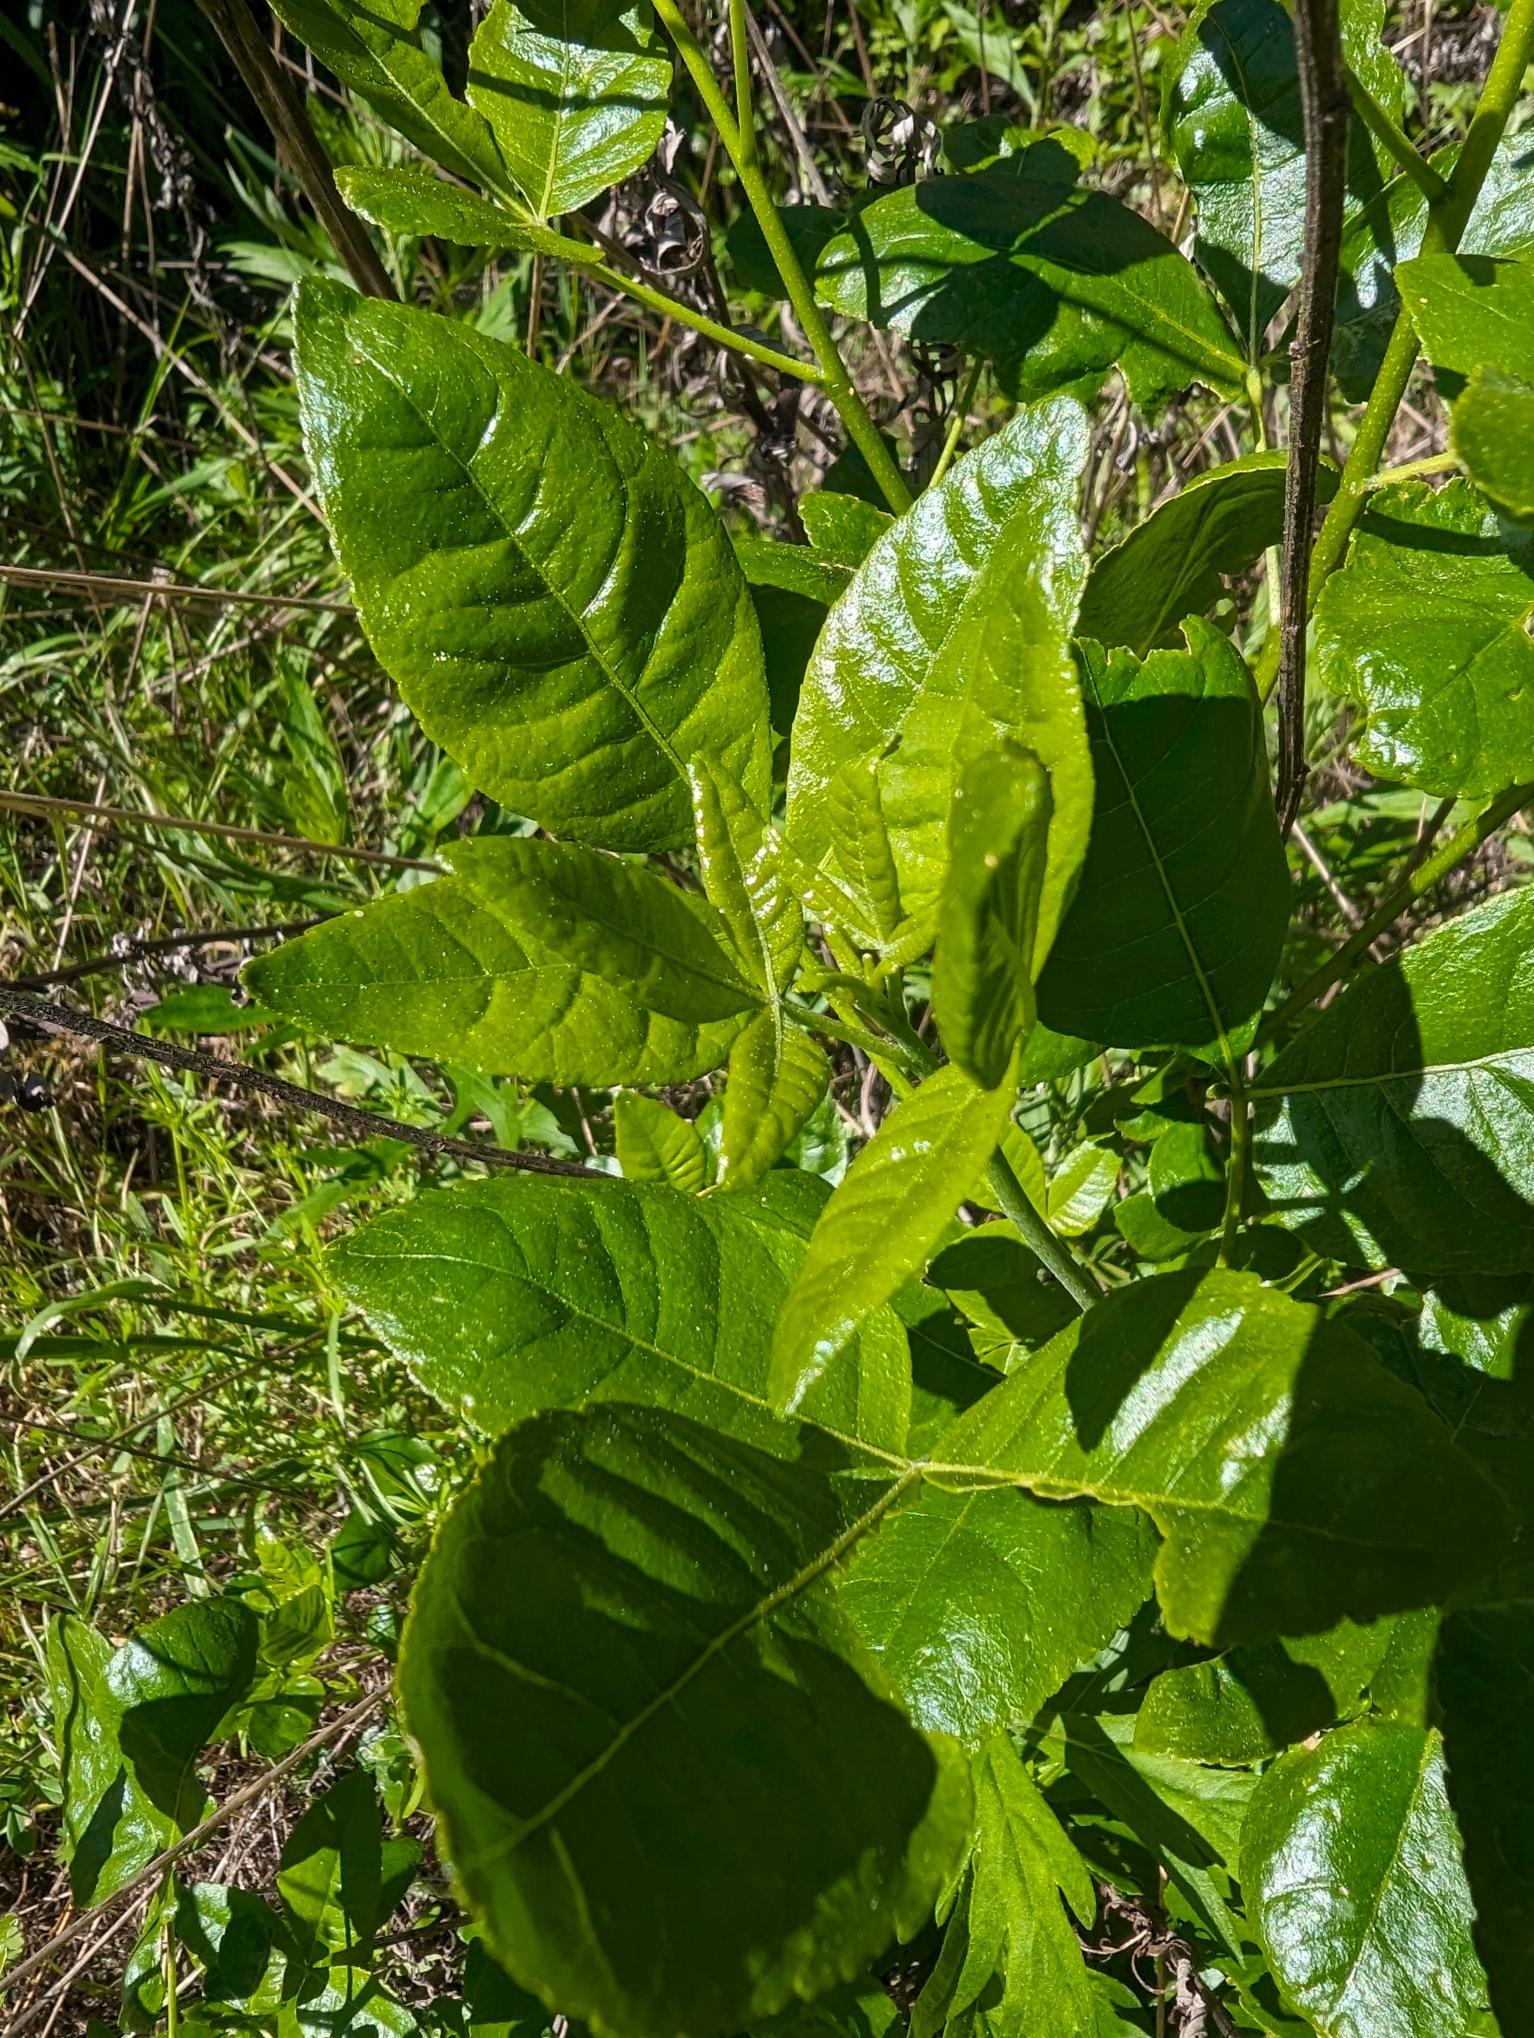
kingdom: Plantae
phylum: Tracheophyta
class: Magnoliopsida
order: Sapindales
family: Rutaceae
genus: Ptelea
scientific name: Ptelea crenulata
